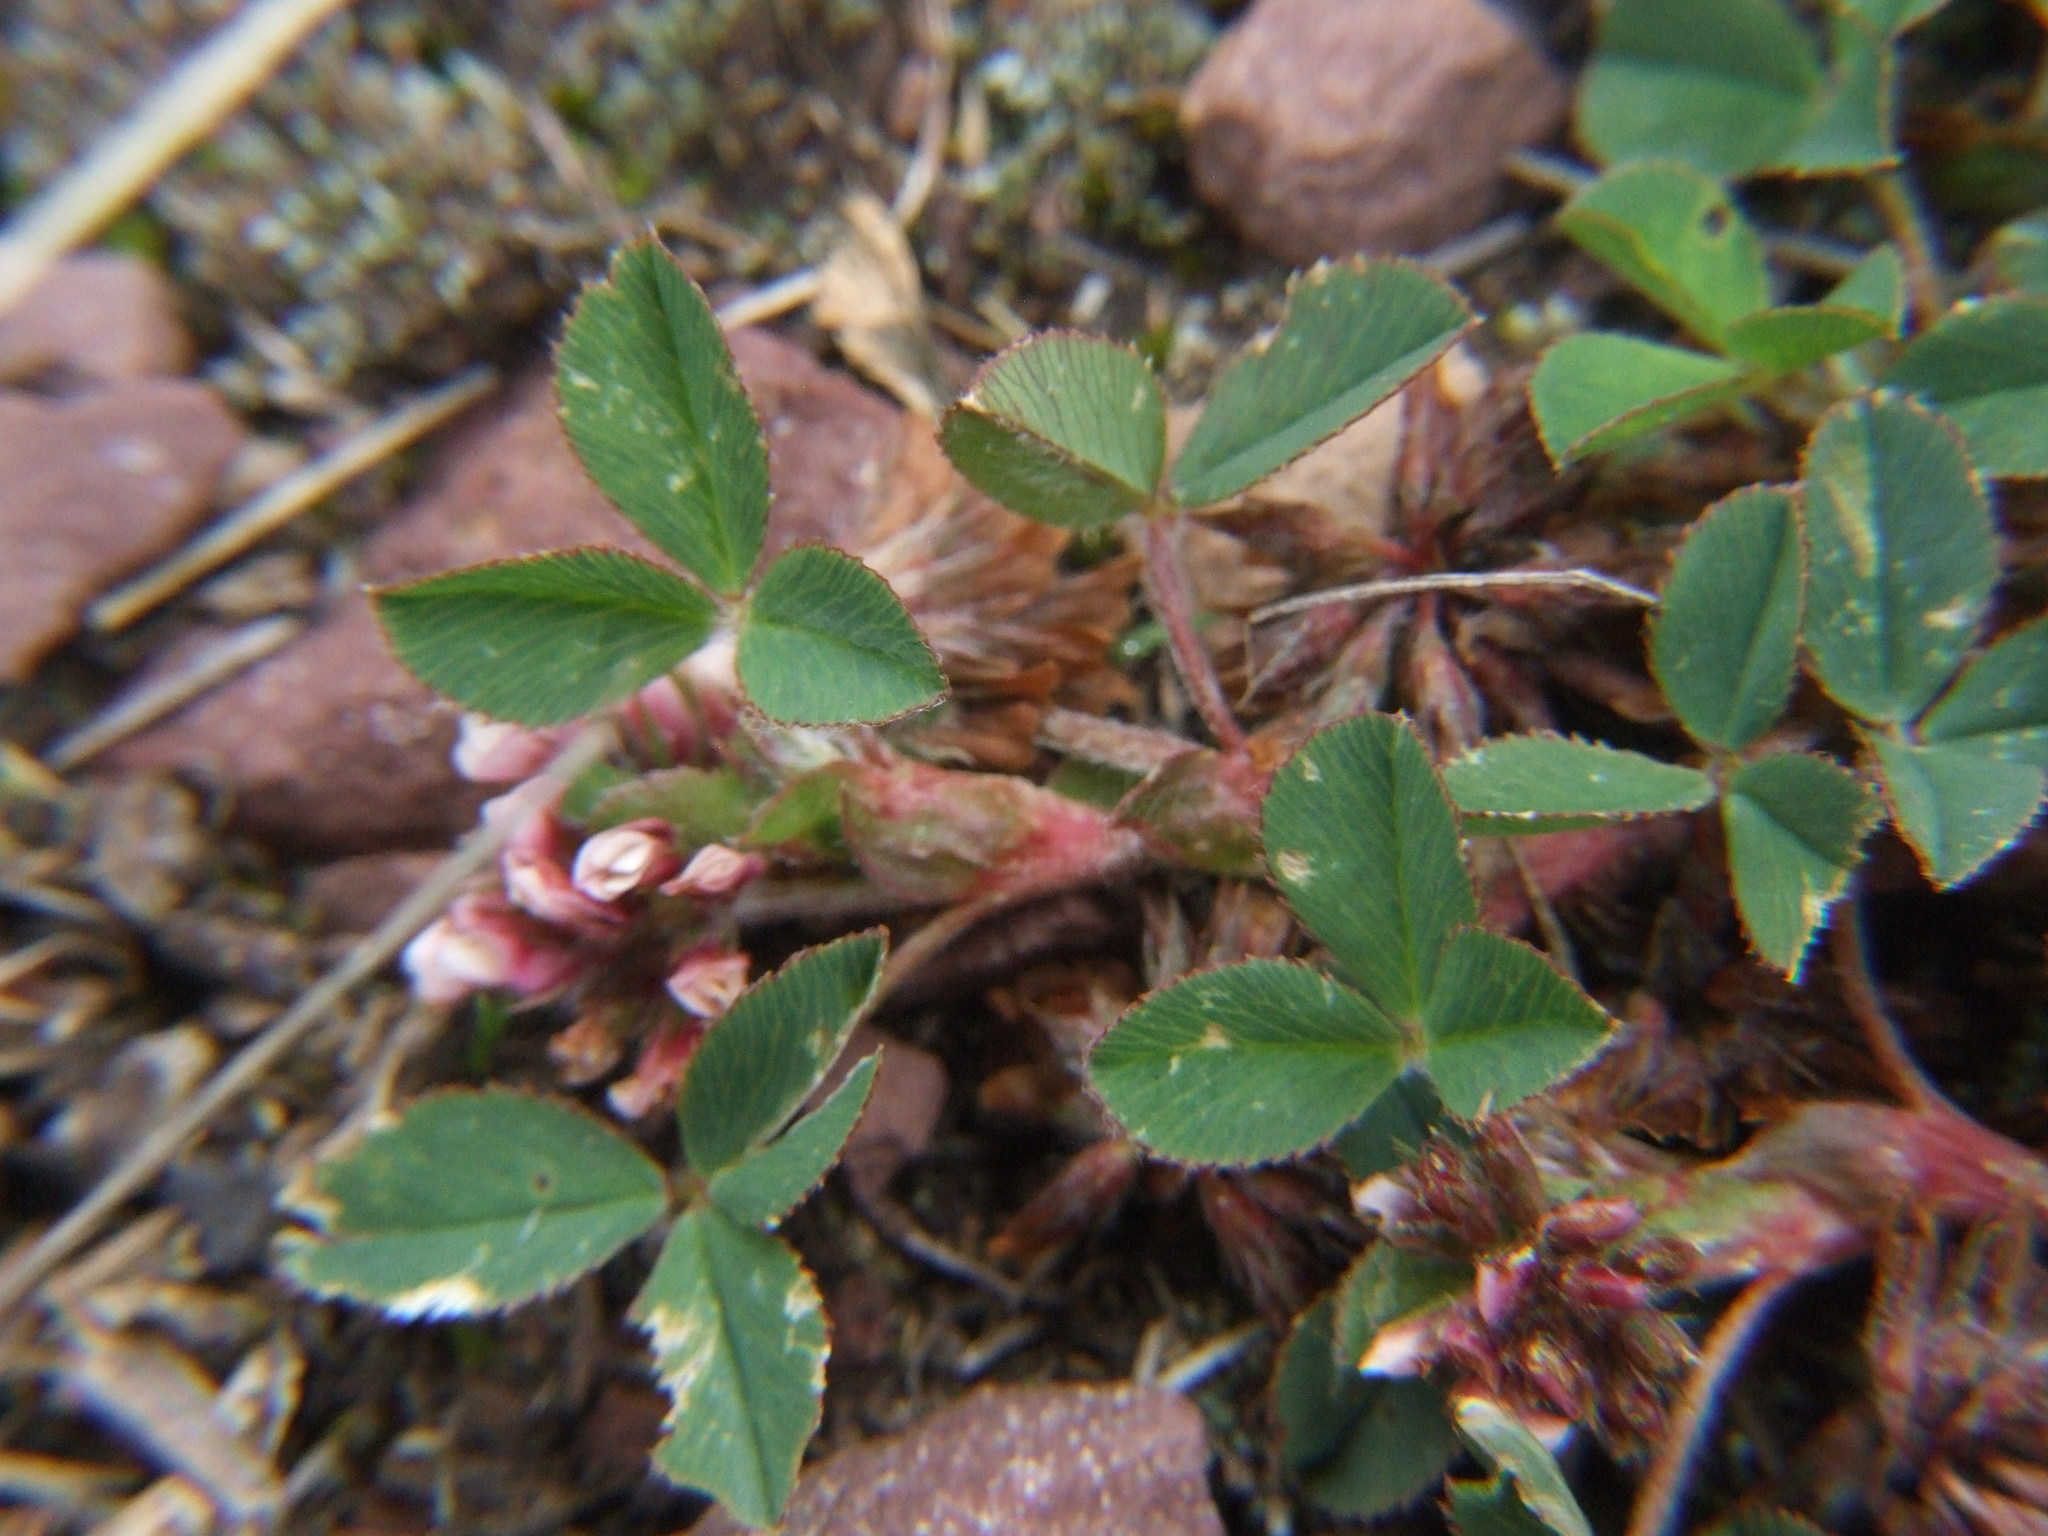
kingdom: Plantae
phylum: Tracheophyta
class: Magnoliopsida
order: Fabales
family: Fabaceae
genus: Trifolium
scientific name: Trifolium amabile
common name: Aztec clover
